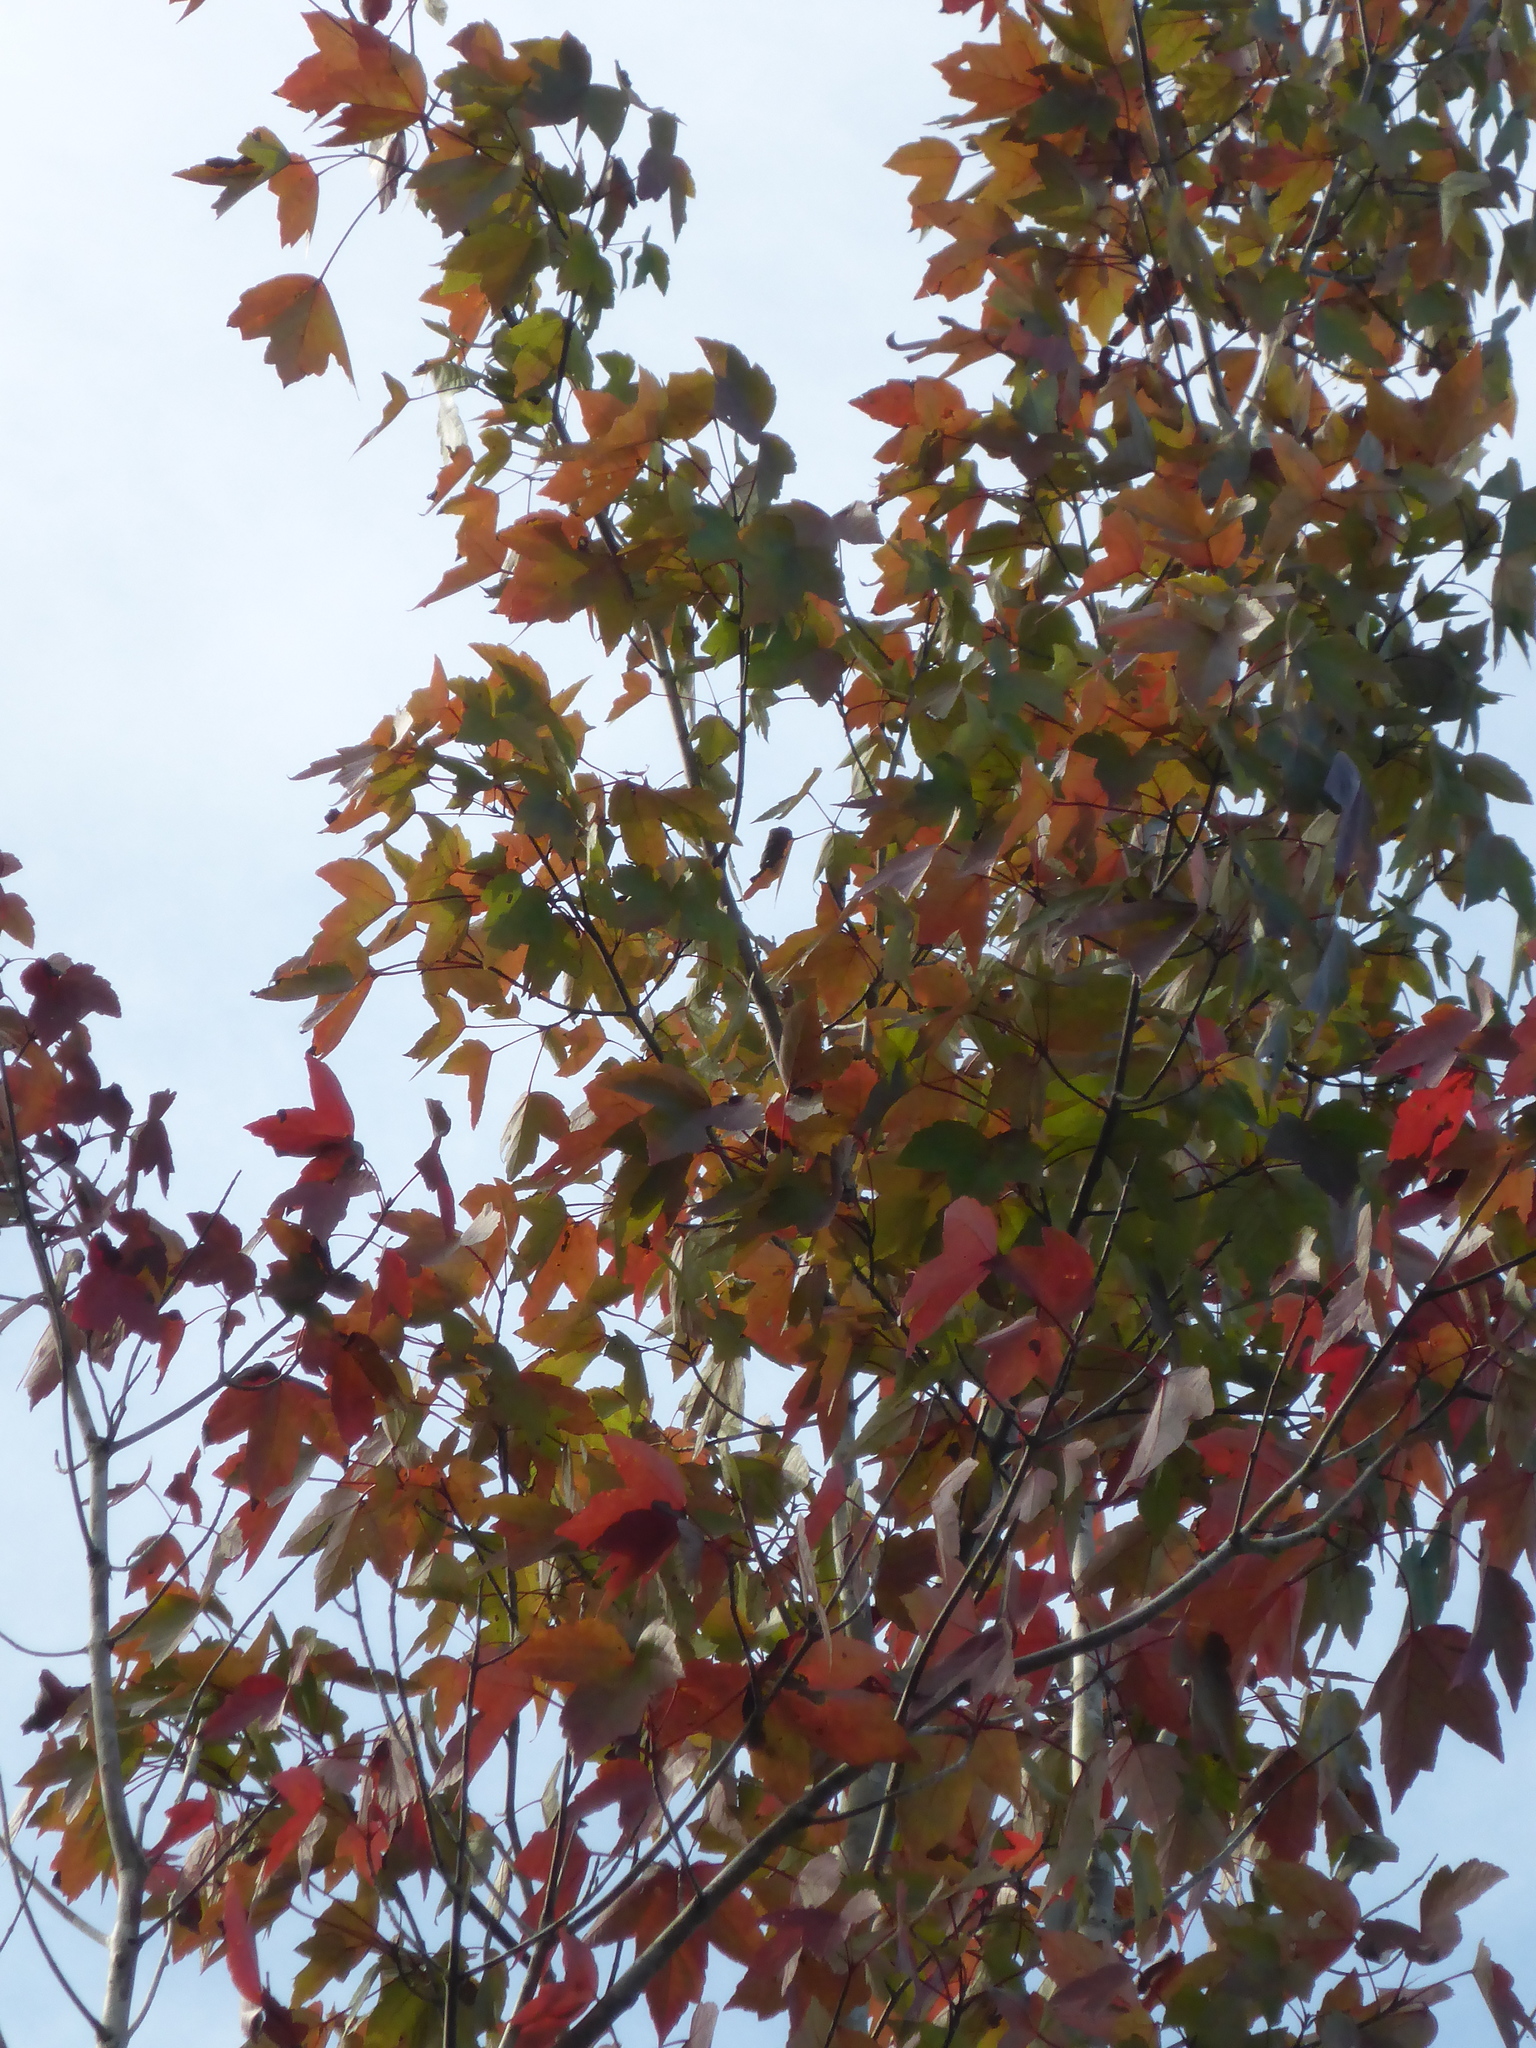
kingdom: Plantae
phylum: Tracheophyta
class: Magnoliopsida
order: Sapindales
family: Sapindaceae
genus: Acer
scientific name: Acer rubrum
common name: Red maple
